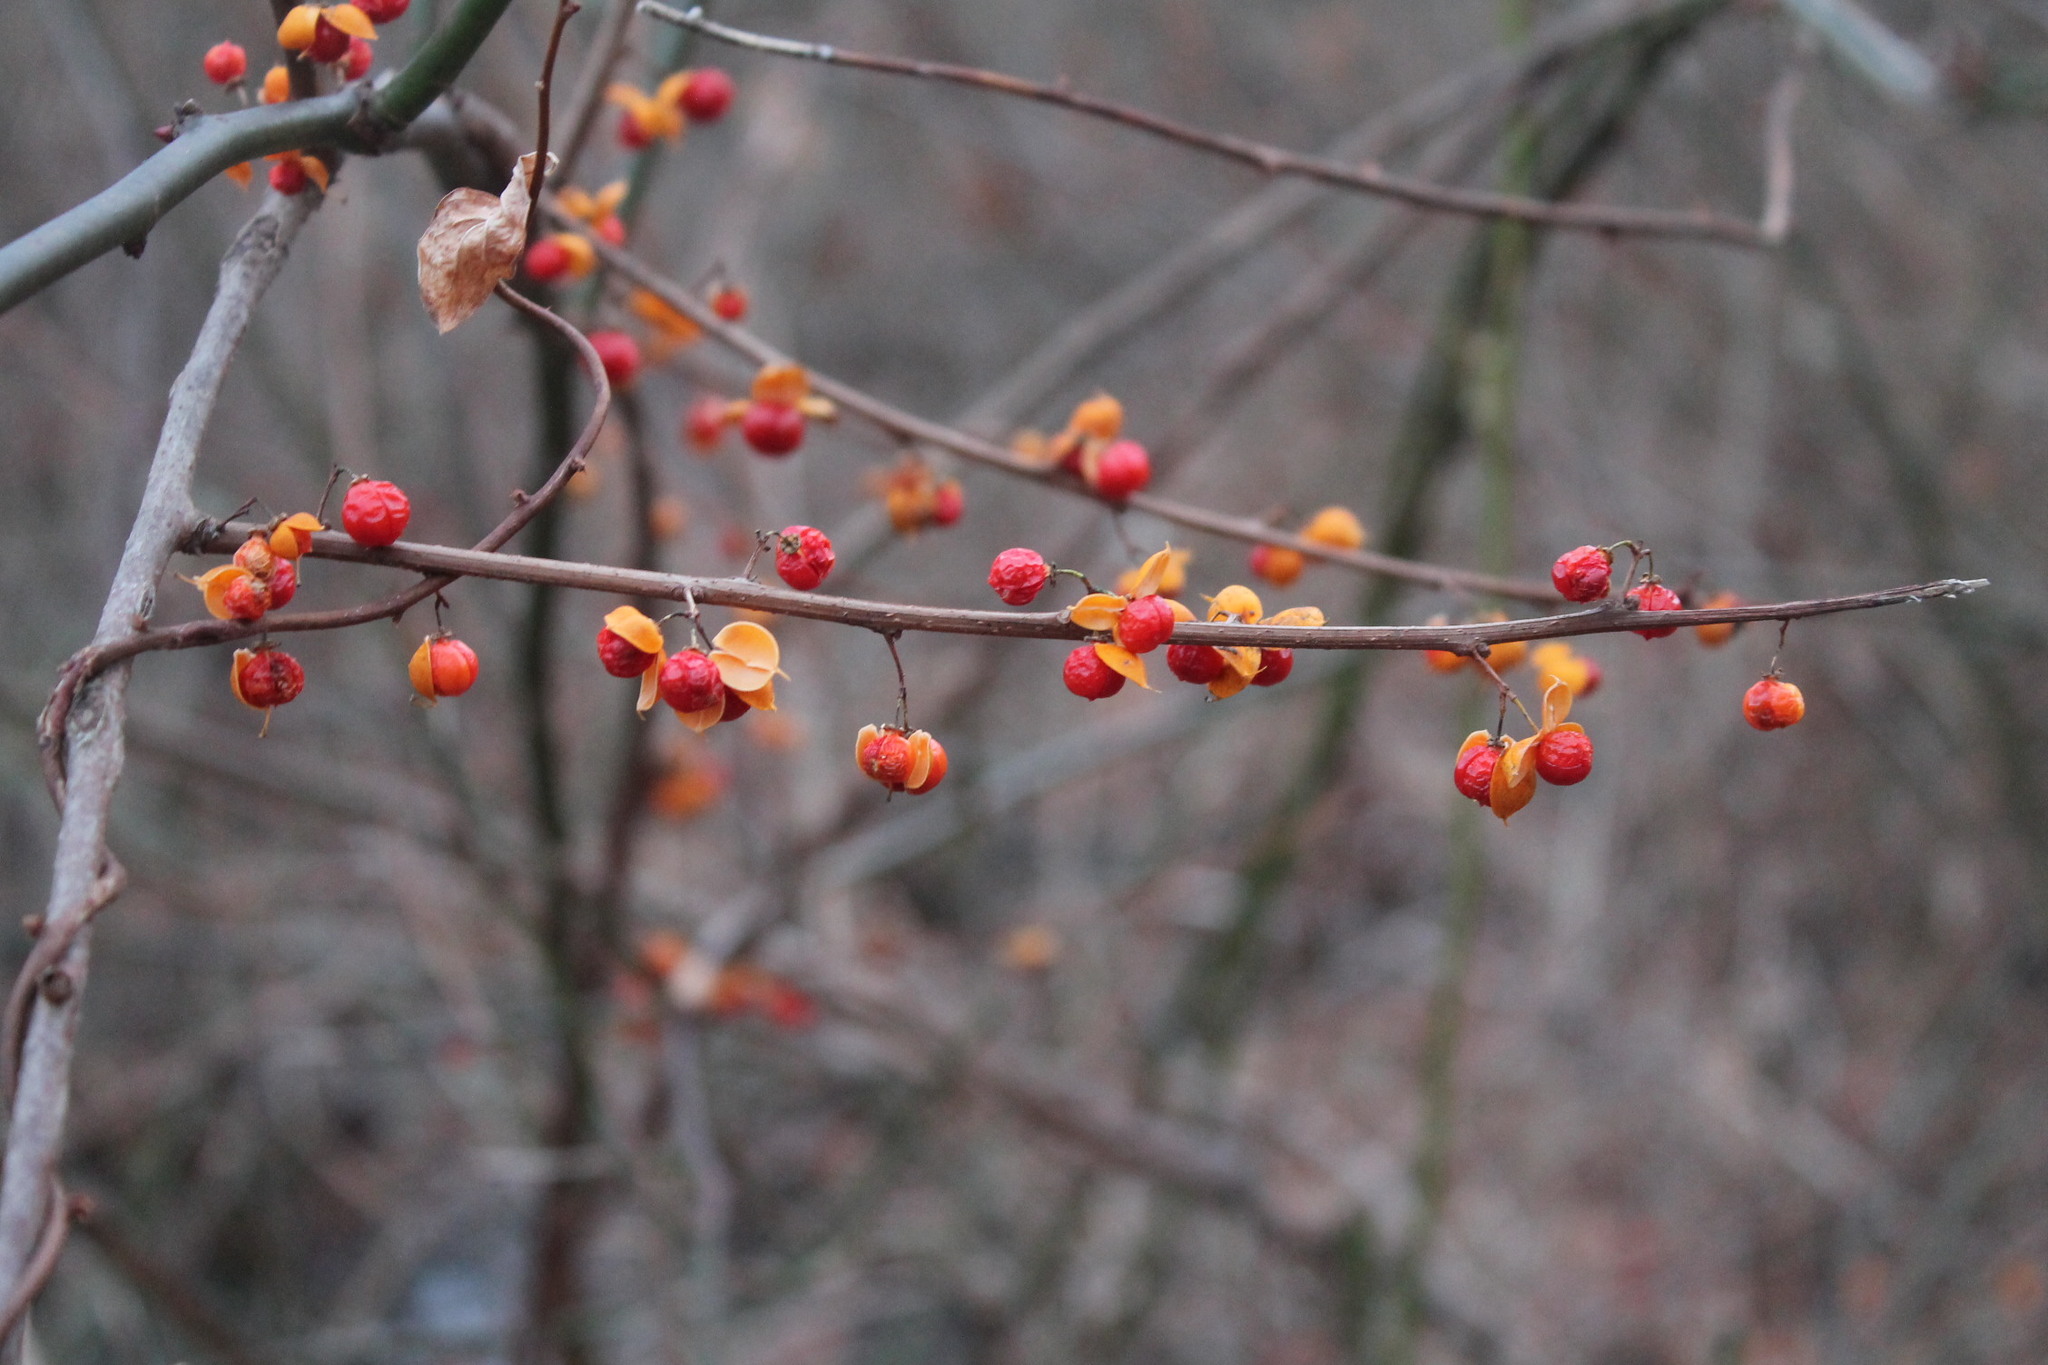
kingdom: Plantae
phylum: Tracheophyta
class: Magnoliopsida
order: Celastrales
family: Celastraceae
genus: Celastrus
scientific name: Celastrus orbiculatus
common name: Oriental bittersweet
